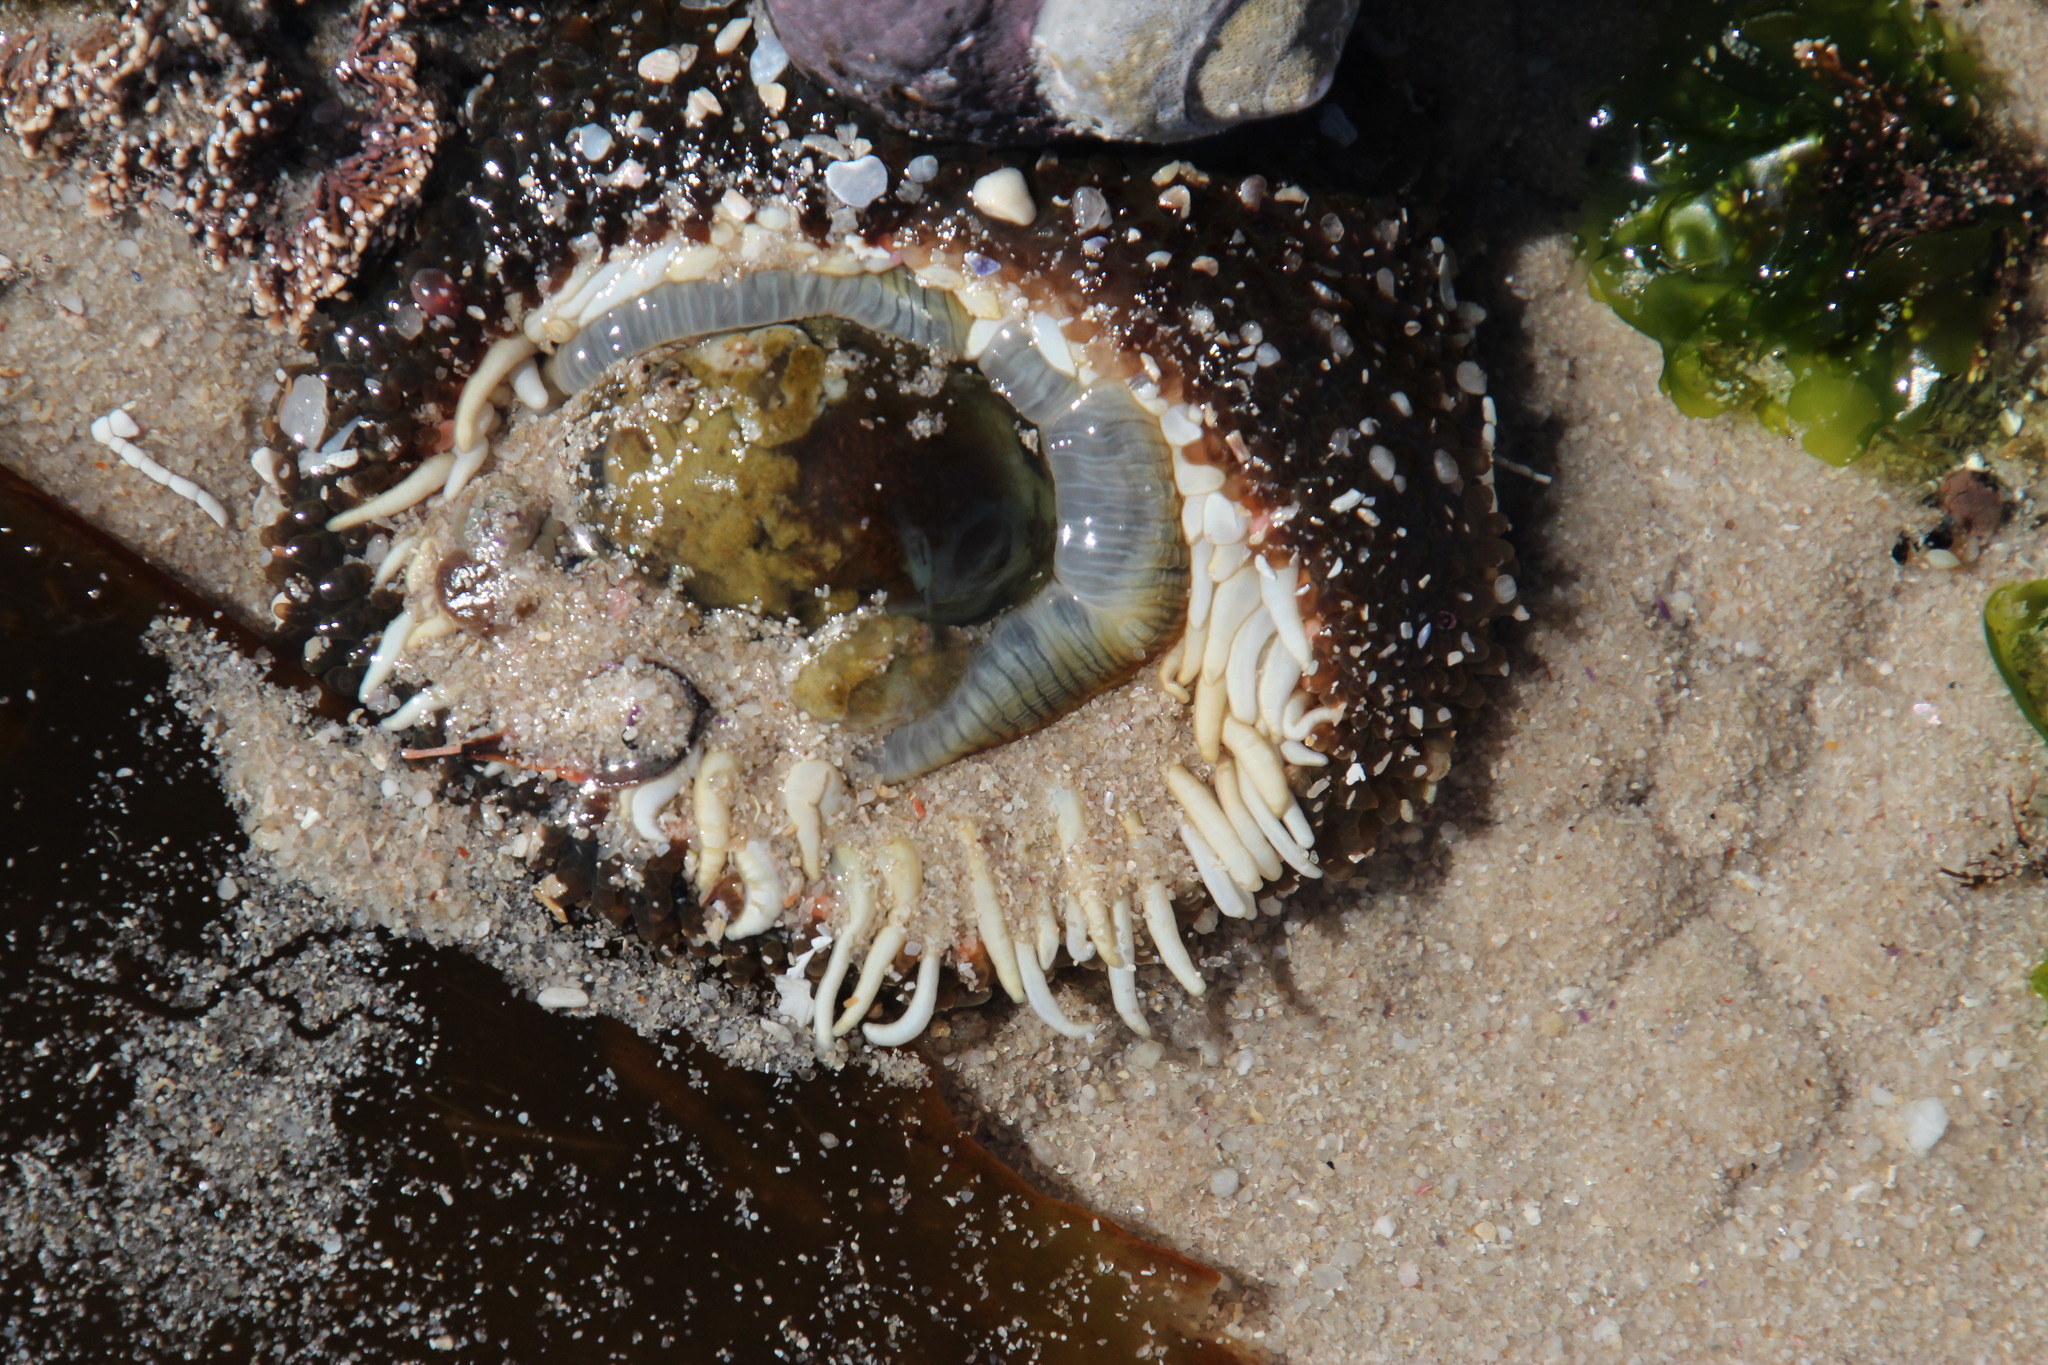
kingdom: Animalia
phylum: Cnidaria
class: Anthozoa
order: Actiniaria
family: Actiniidae
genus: Bunodactis
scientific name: Bunodactis reynaudi
